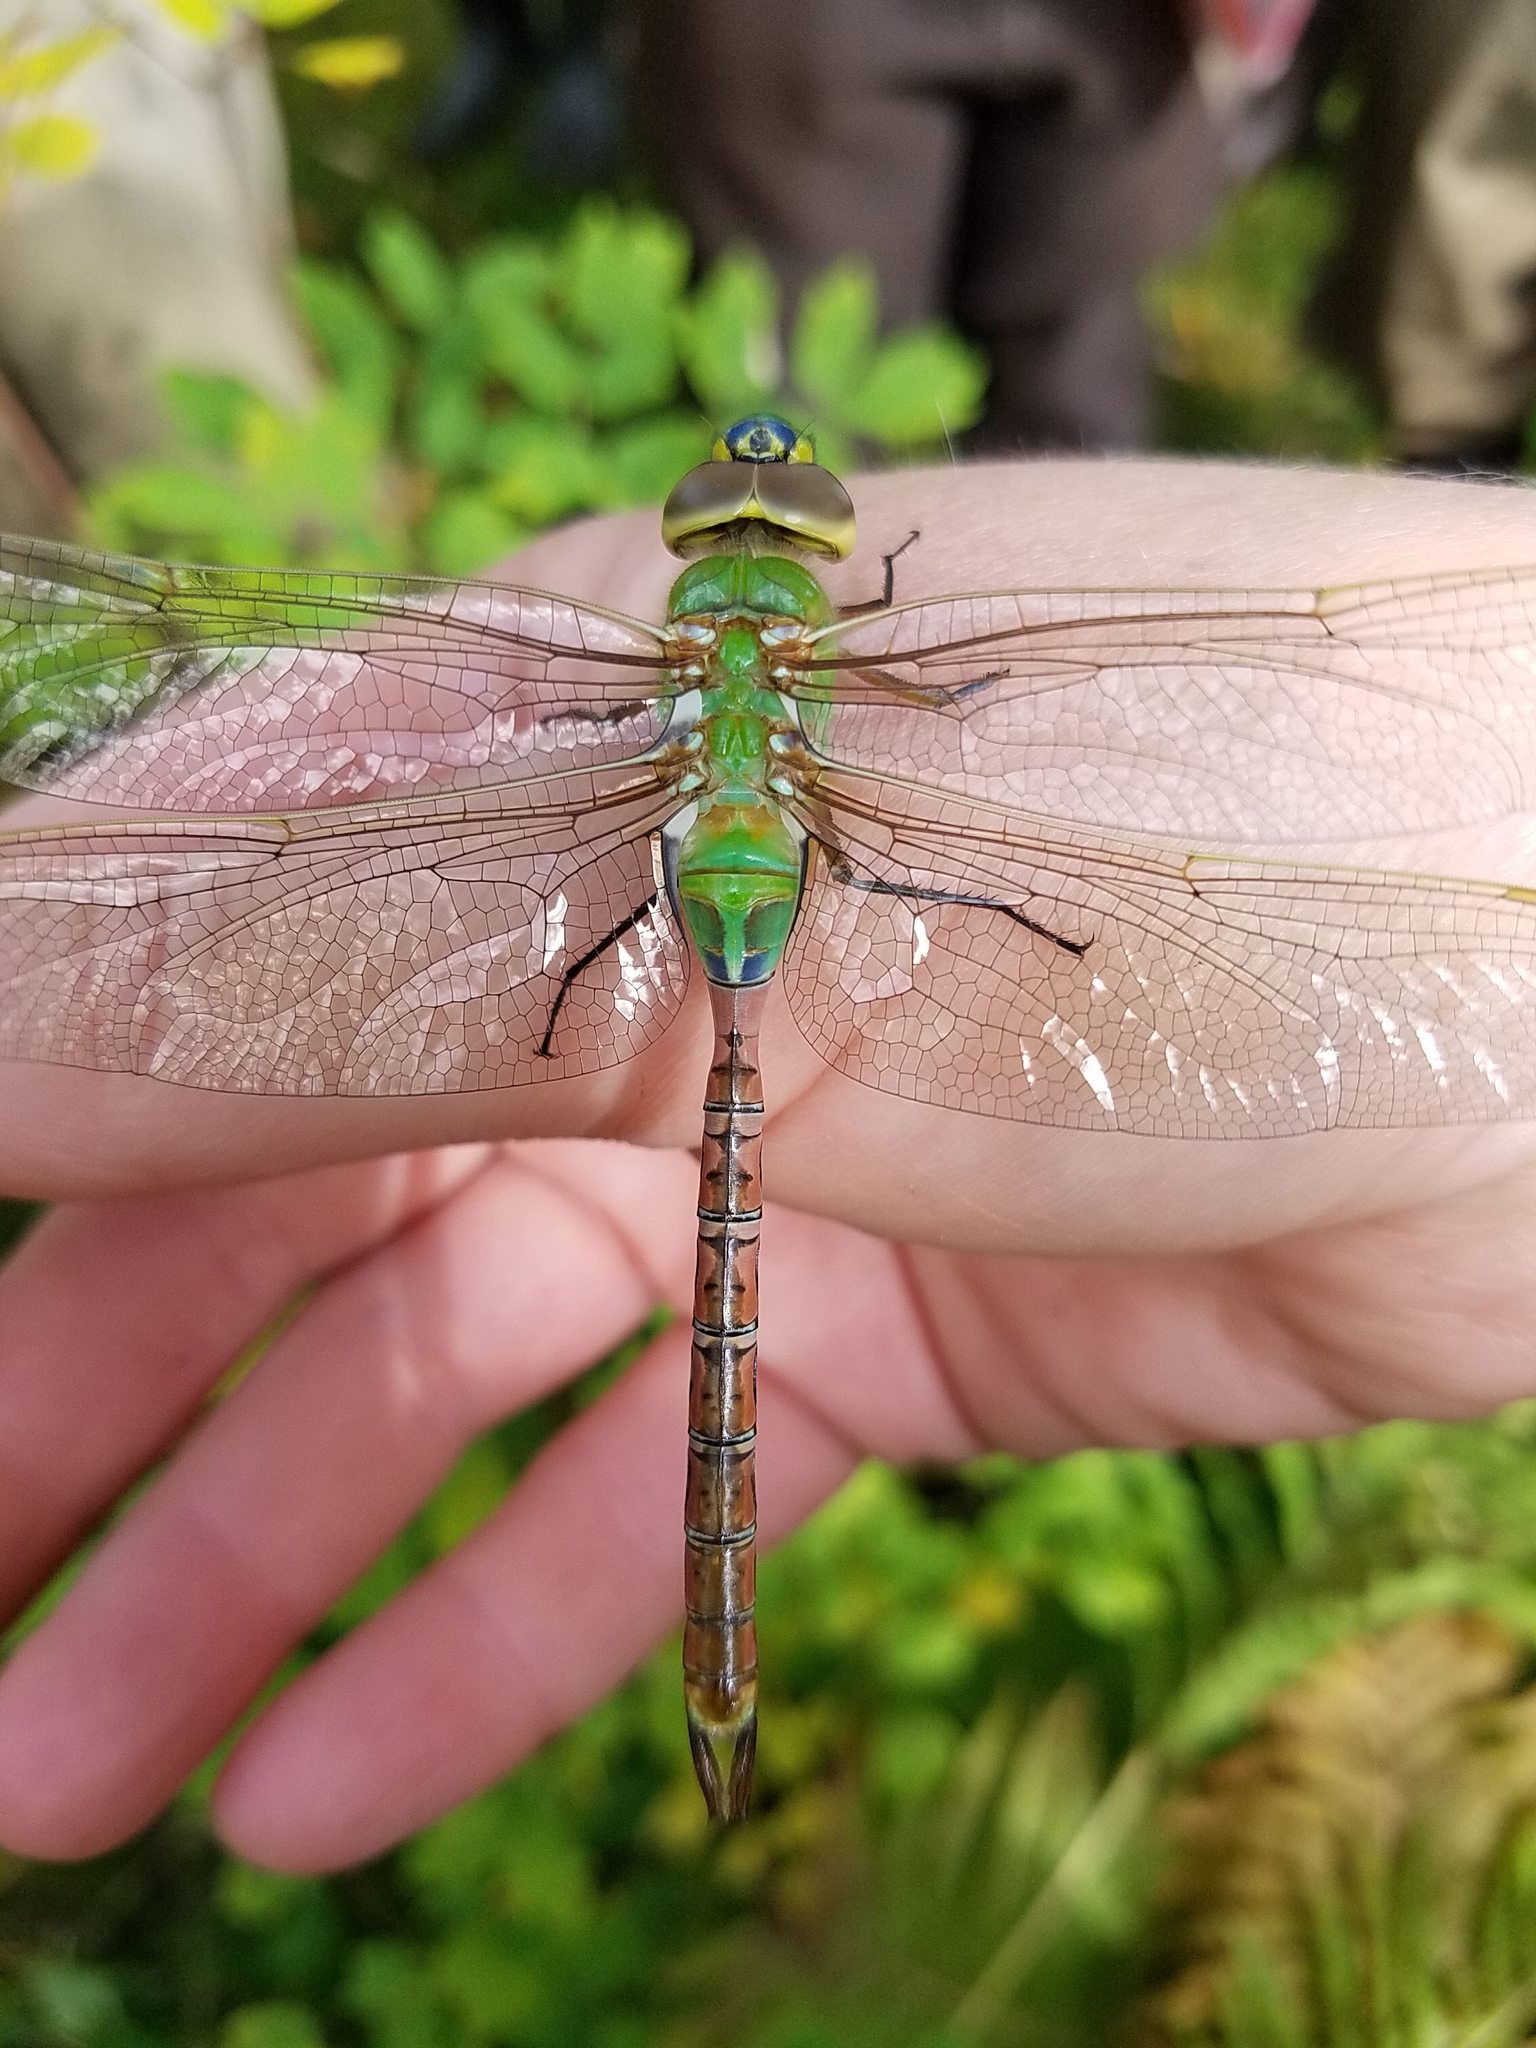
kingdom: Animalia
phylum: Arthropoda
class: Insecta
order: Odonata
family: Aeshnidae
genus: Anax
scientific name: Anax junius
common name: Common green darner
